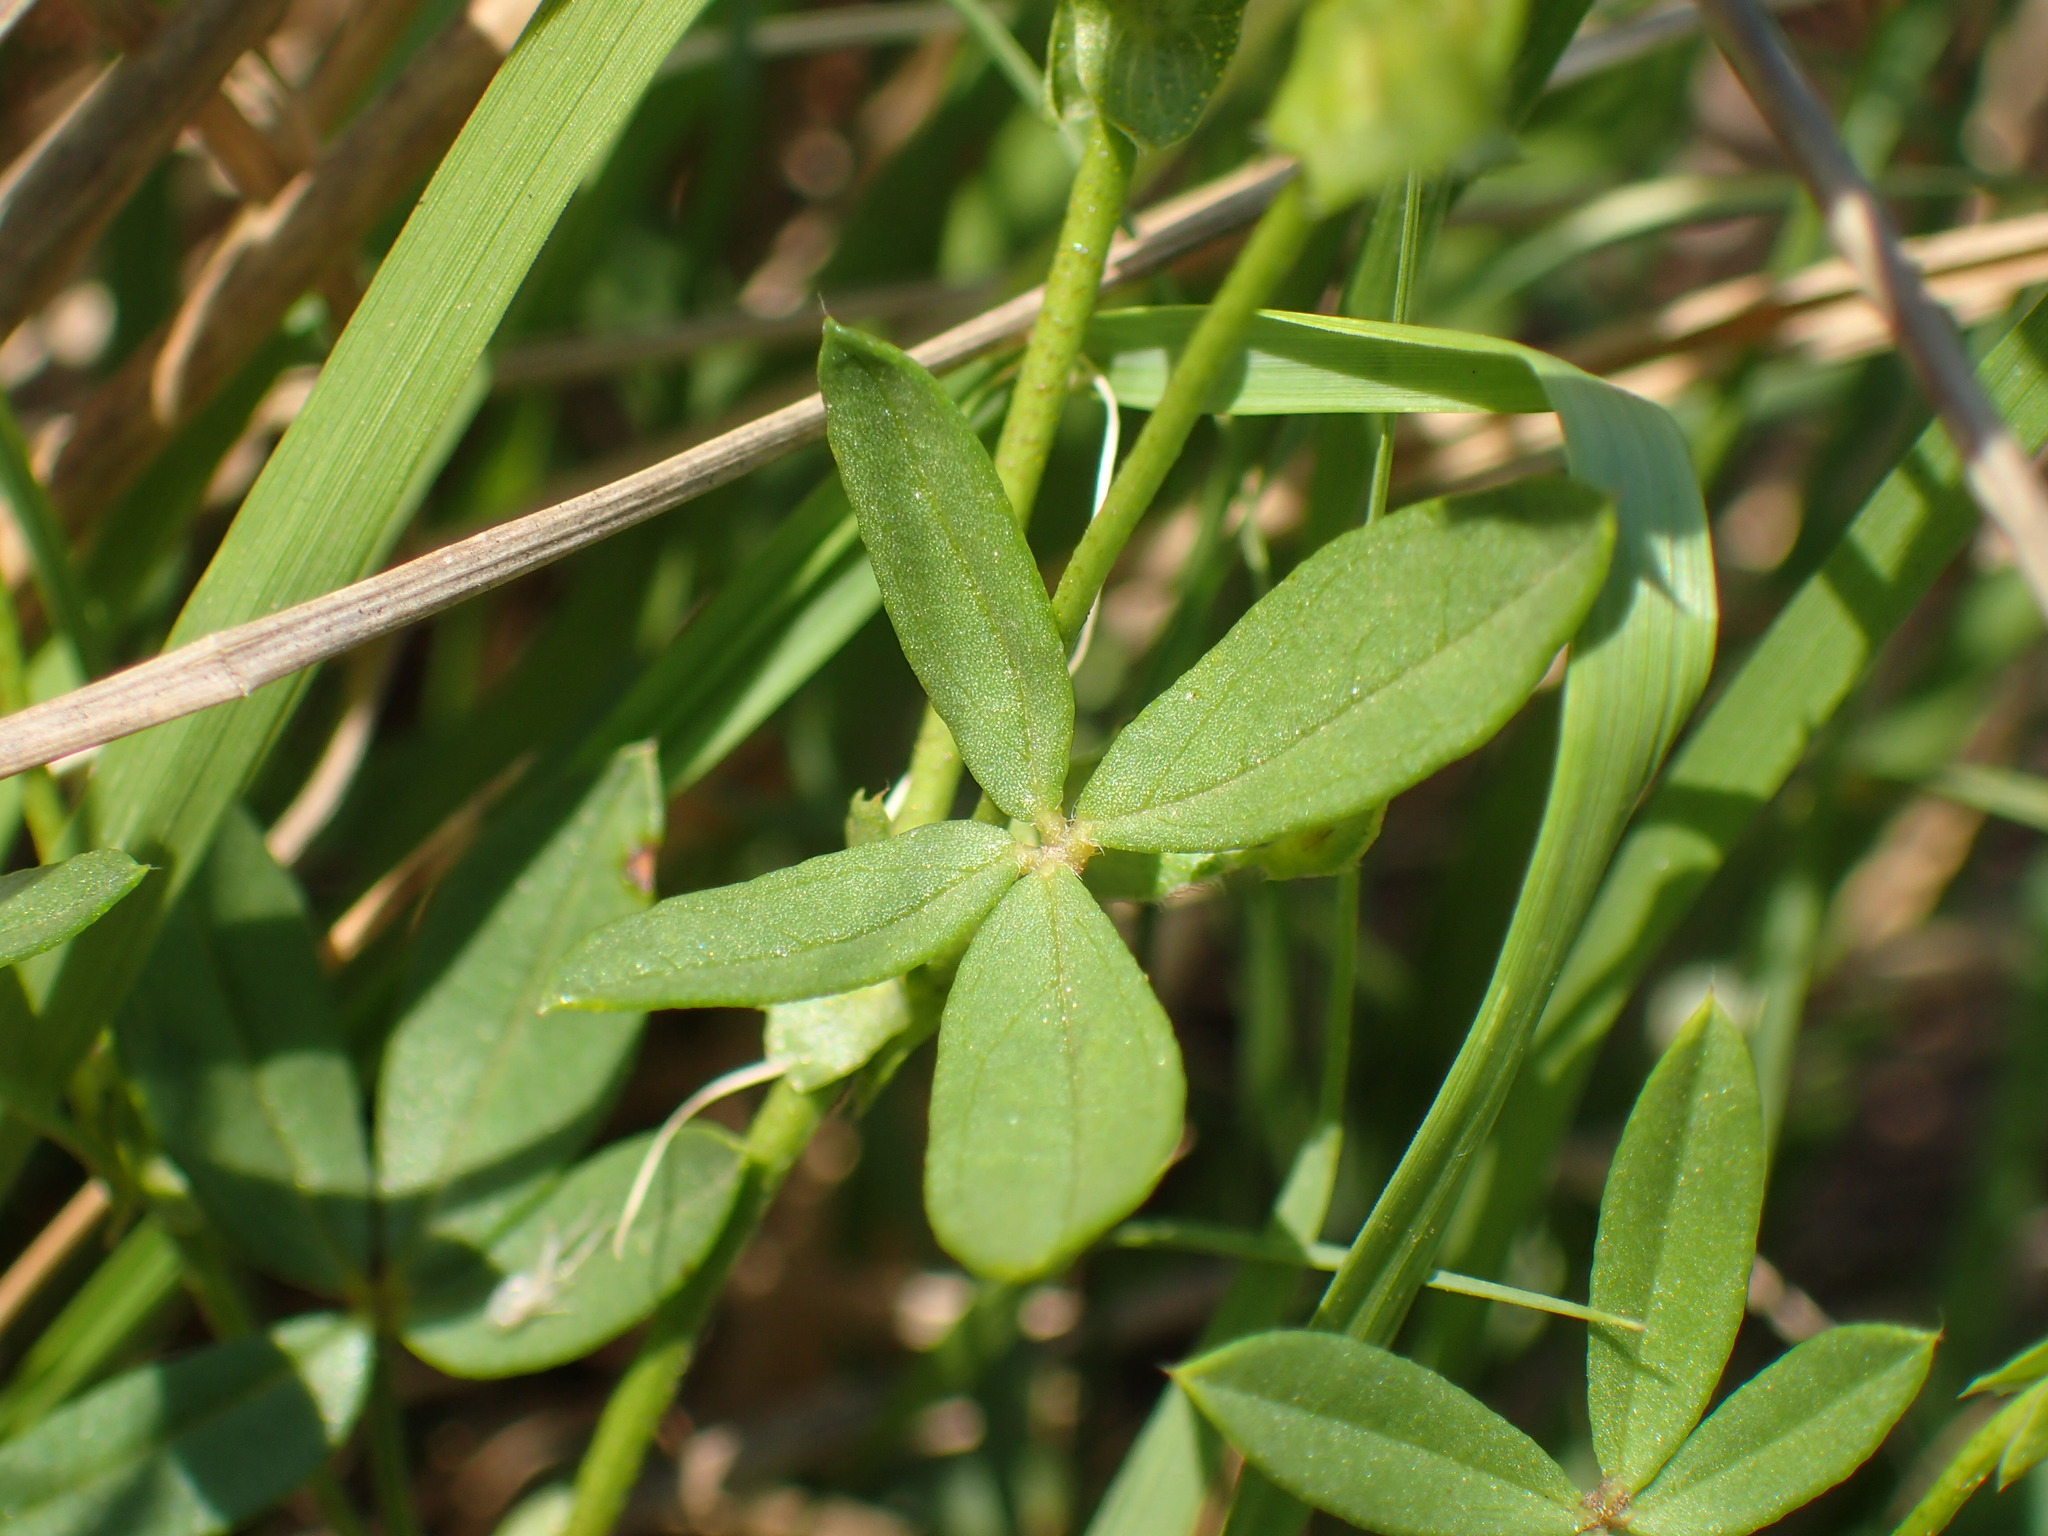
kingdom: Plantae
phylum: Tracheophyta
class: Magnoliopsida
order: Fabales
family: Fabaceae
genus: Zornia
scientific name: Zornia milneana
